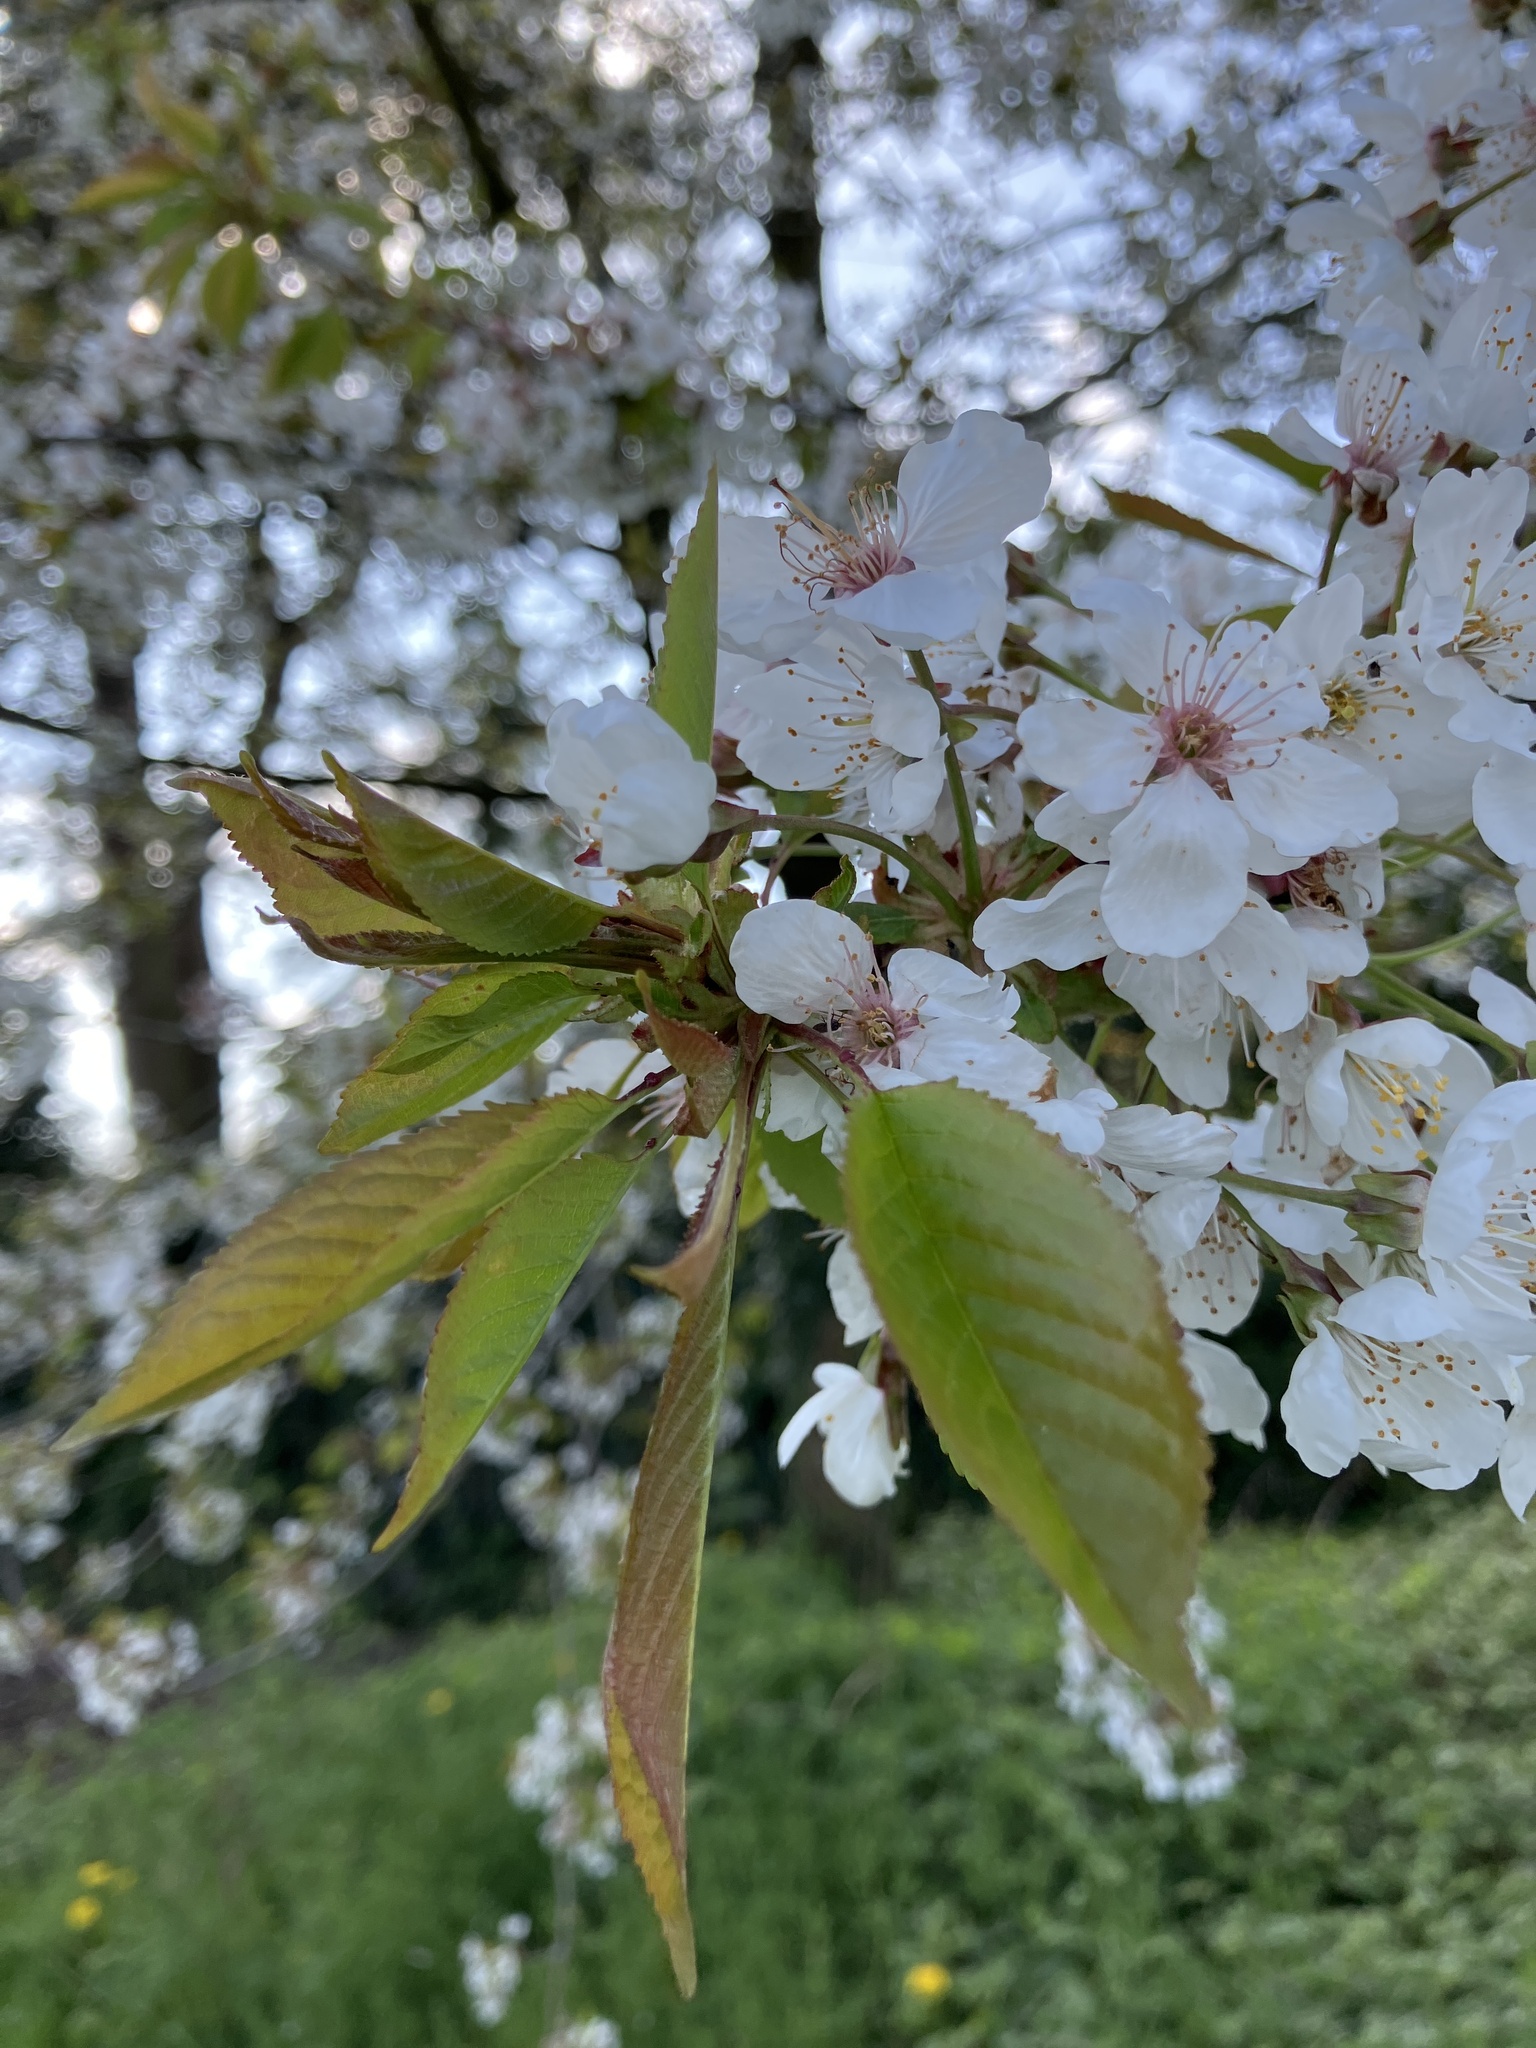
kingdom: Plantae
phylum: Tracheophyta
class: Magnoliopsida
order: Rosales
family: Rosaceae
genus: Prunus
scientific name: Prunus avium
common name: Sweet cherry
